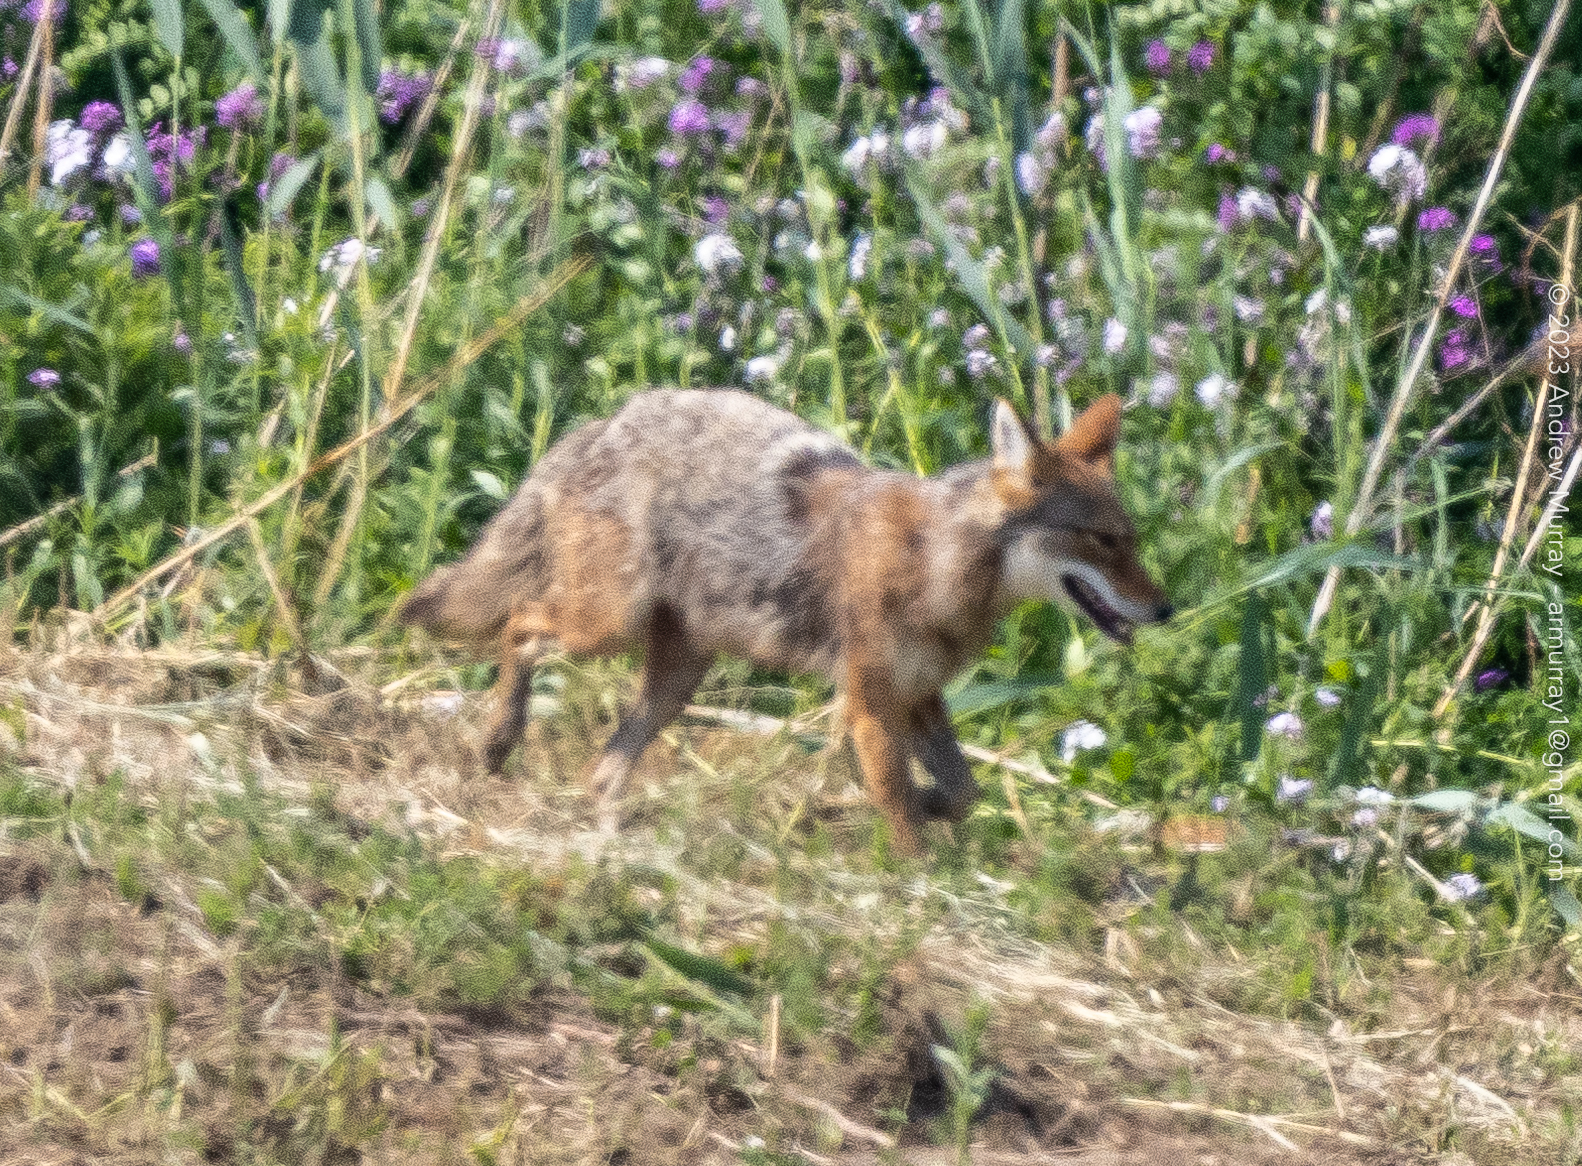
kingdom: Animalia
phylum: Chordata
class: Mammalia
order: Carnivora
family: Canidae
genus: Canis
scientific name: Canis latrans
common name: Coyote
